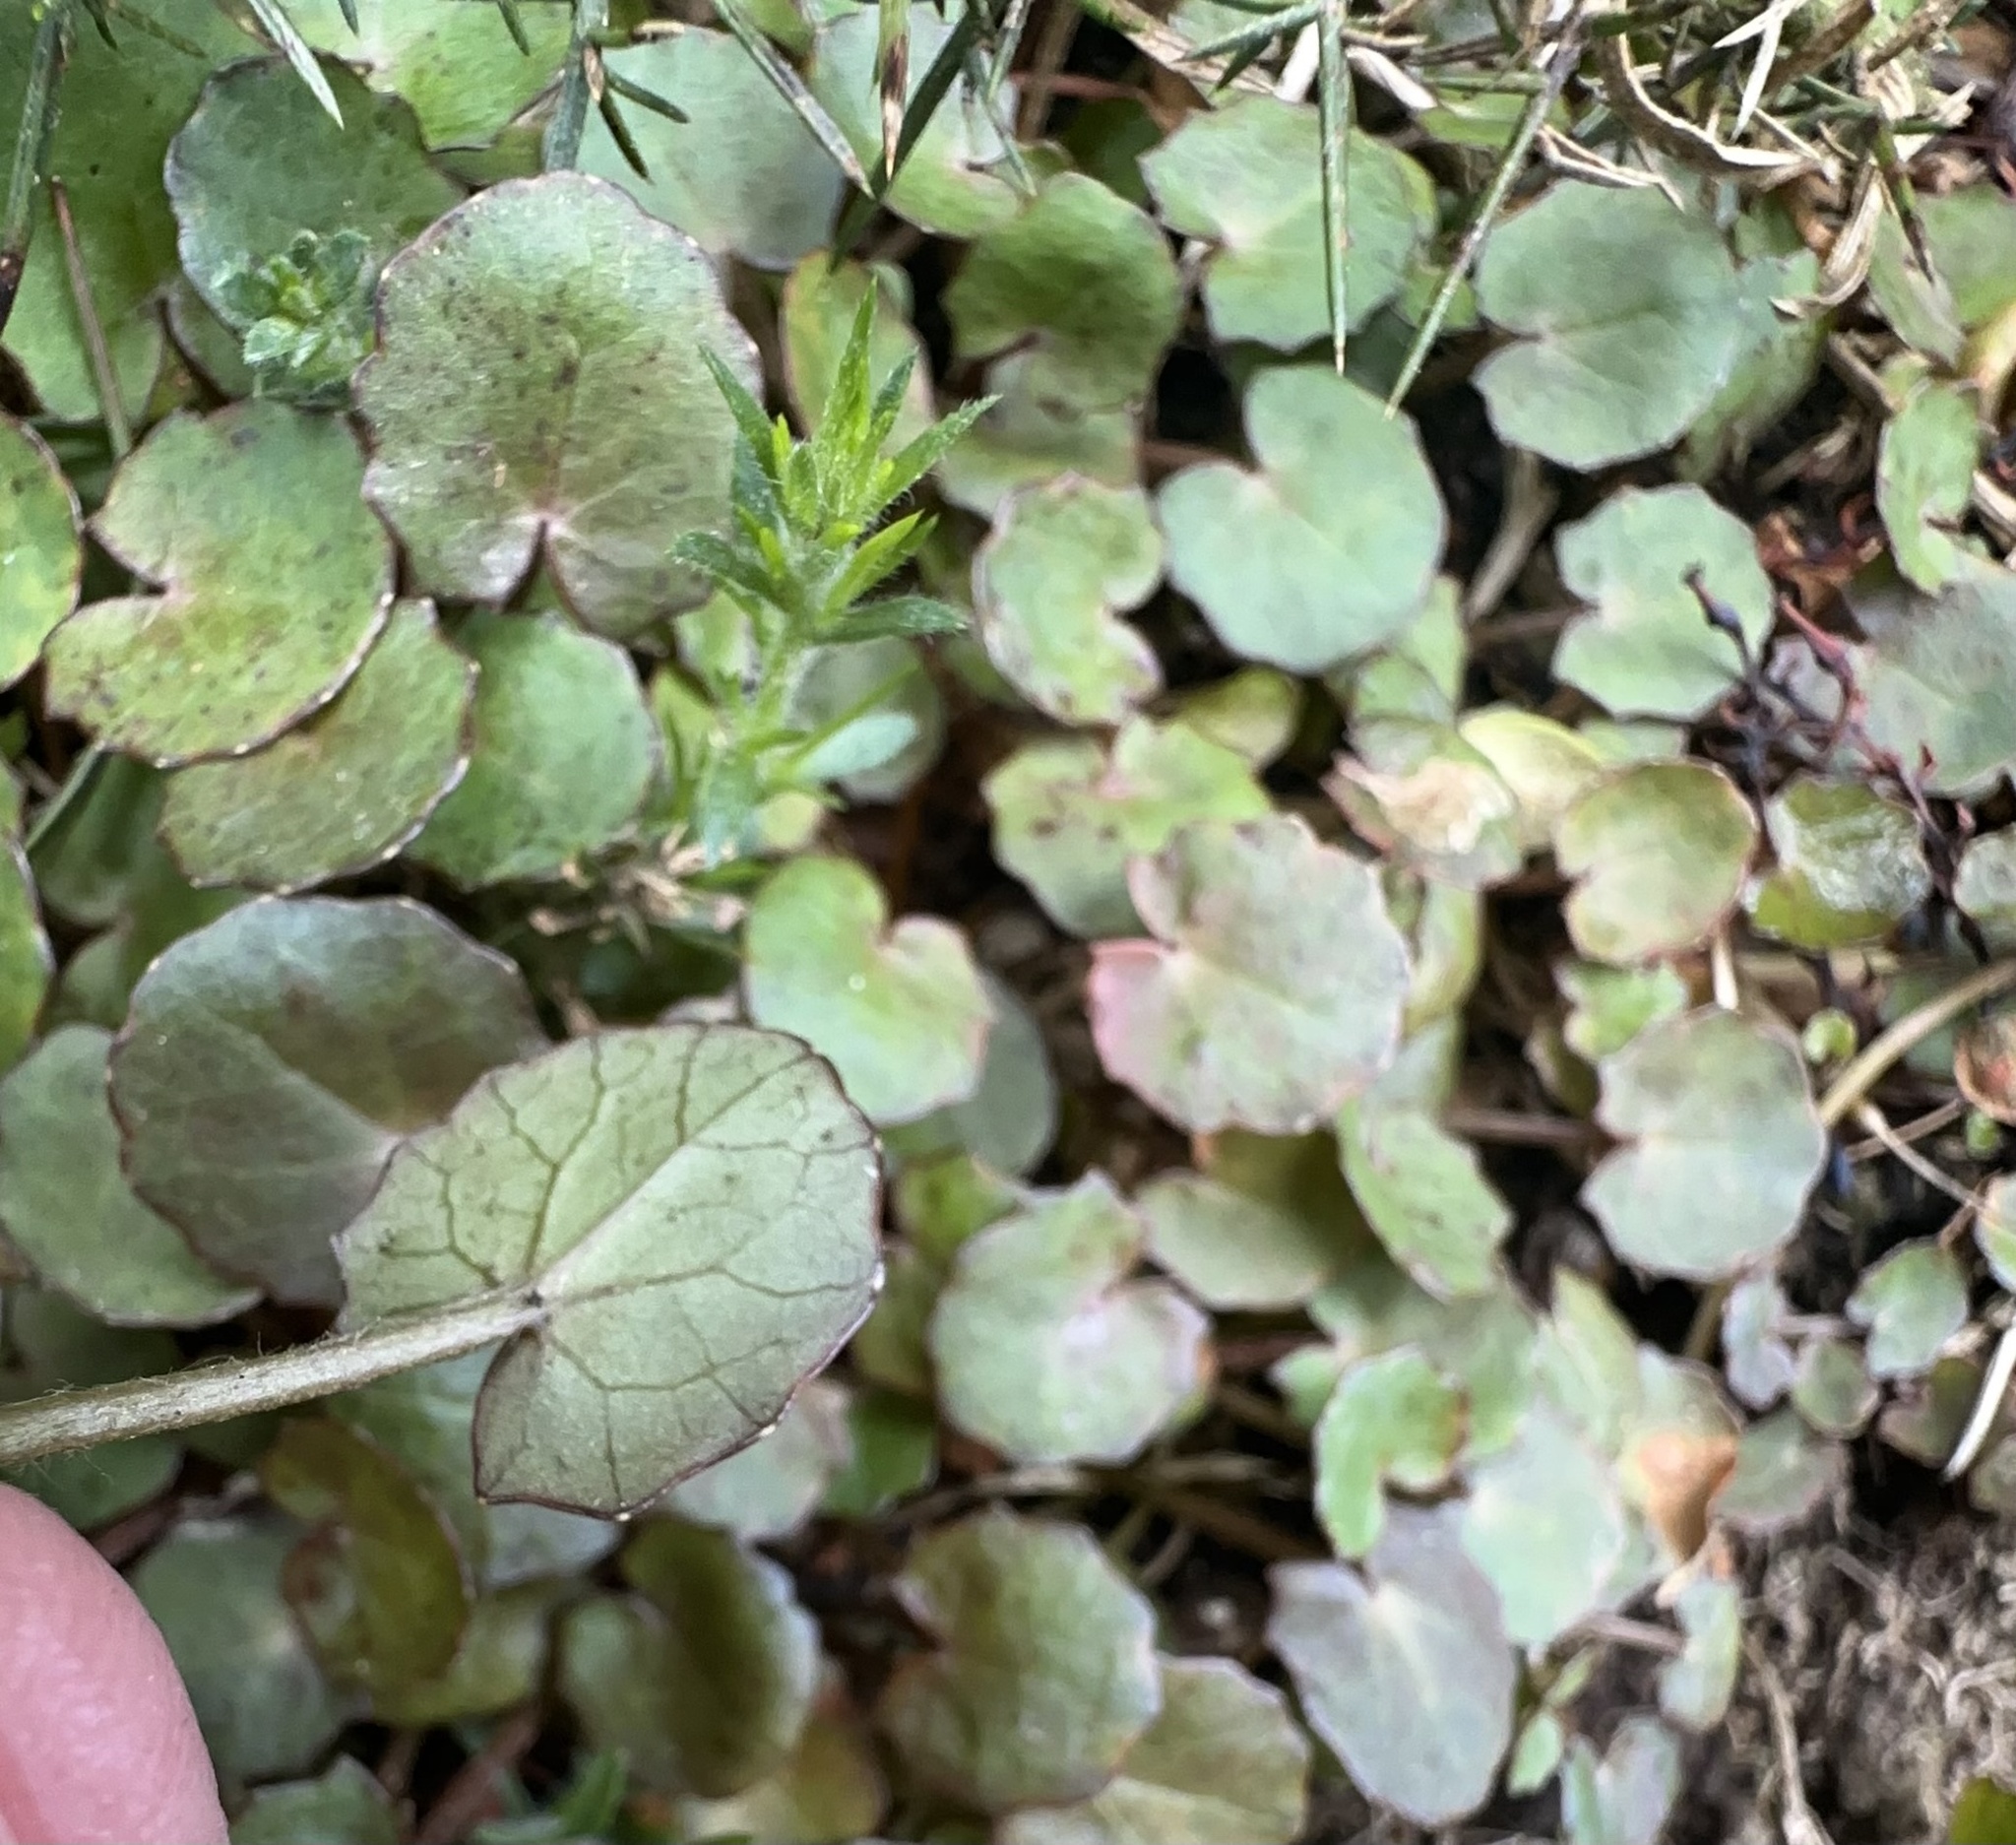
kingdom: Plantae
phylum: Tracheophyta
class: Magnoliopsida
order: Apiales
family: Apiaceae
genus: Centella
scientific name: Centella uniflora
